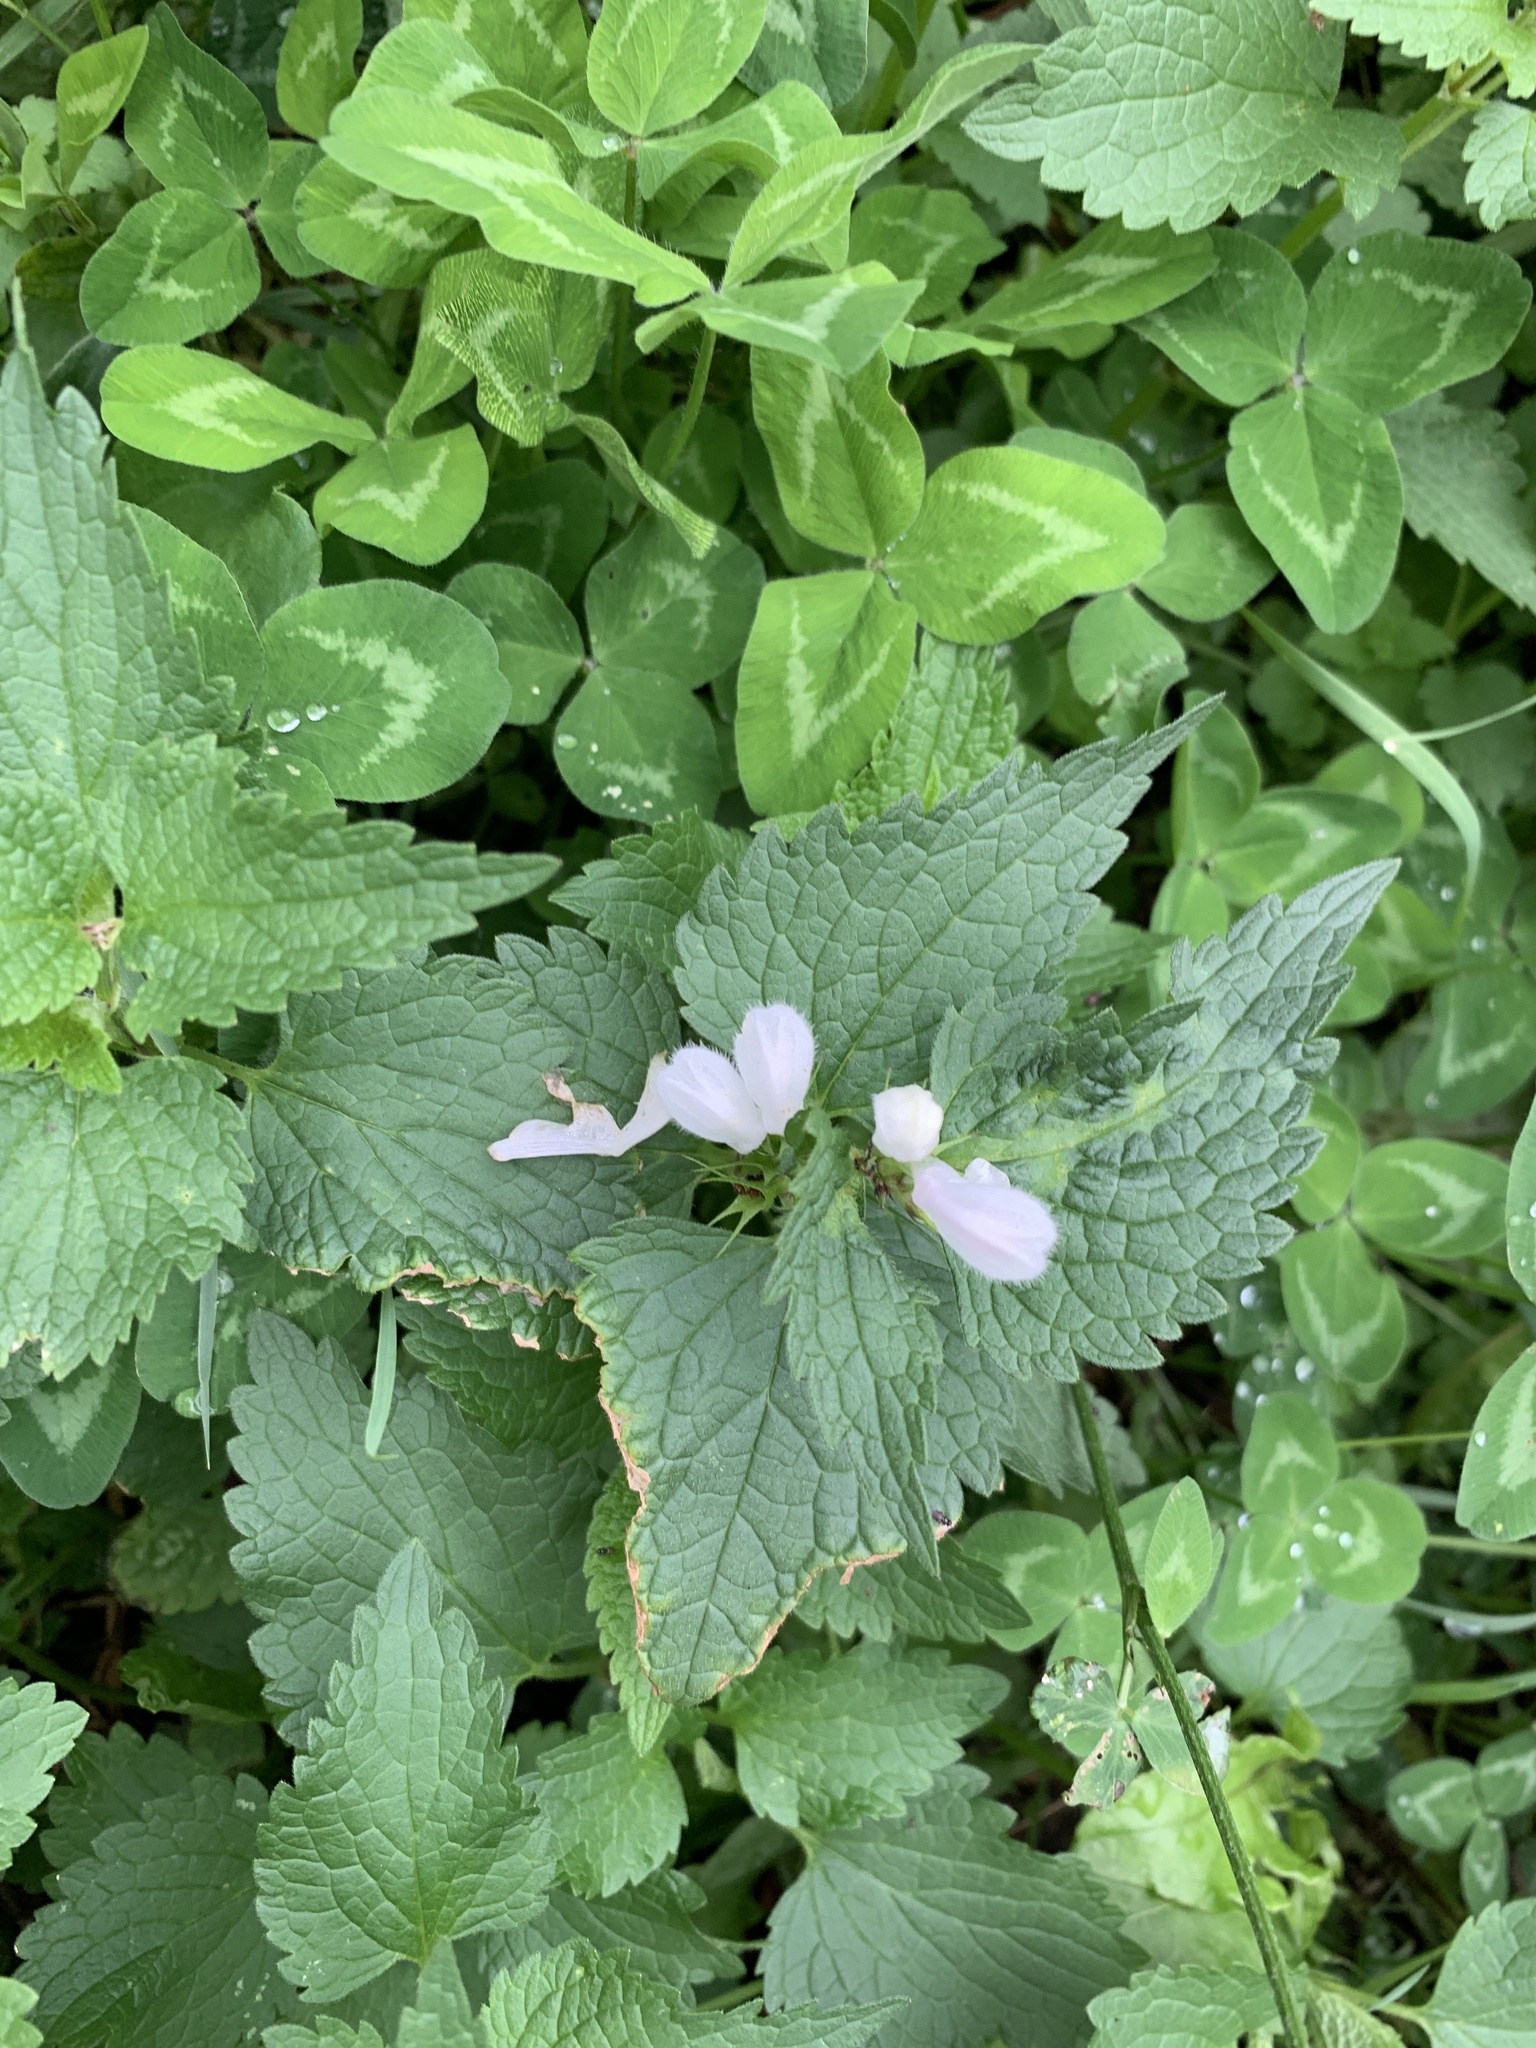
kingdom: Plantae
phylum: Tracheophyta
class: Magnoliopsida
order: Lamiales
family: Lamiaceae
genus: Lamium
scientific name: Lamium album
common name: White dead-nettle
